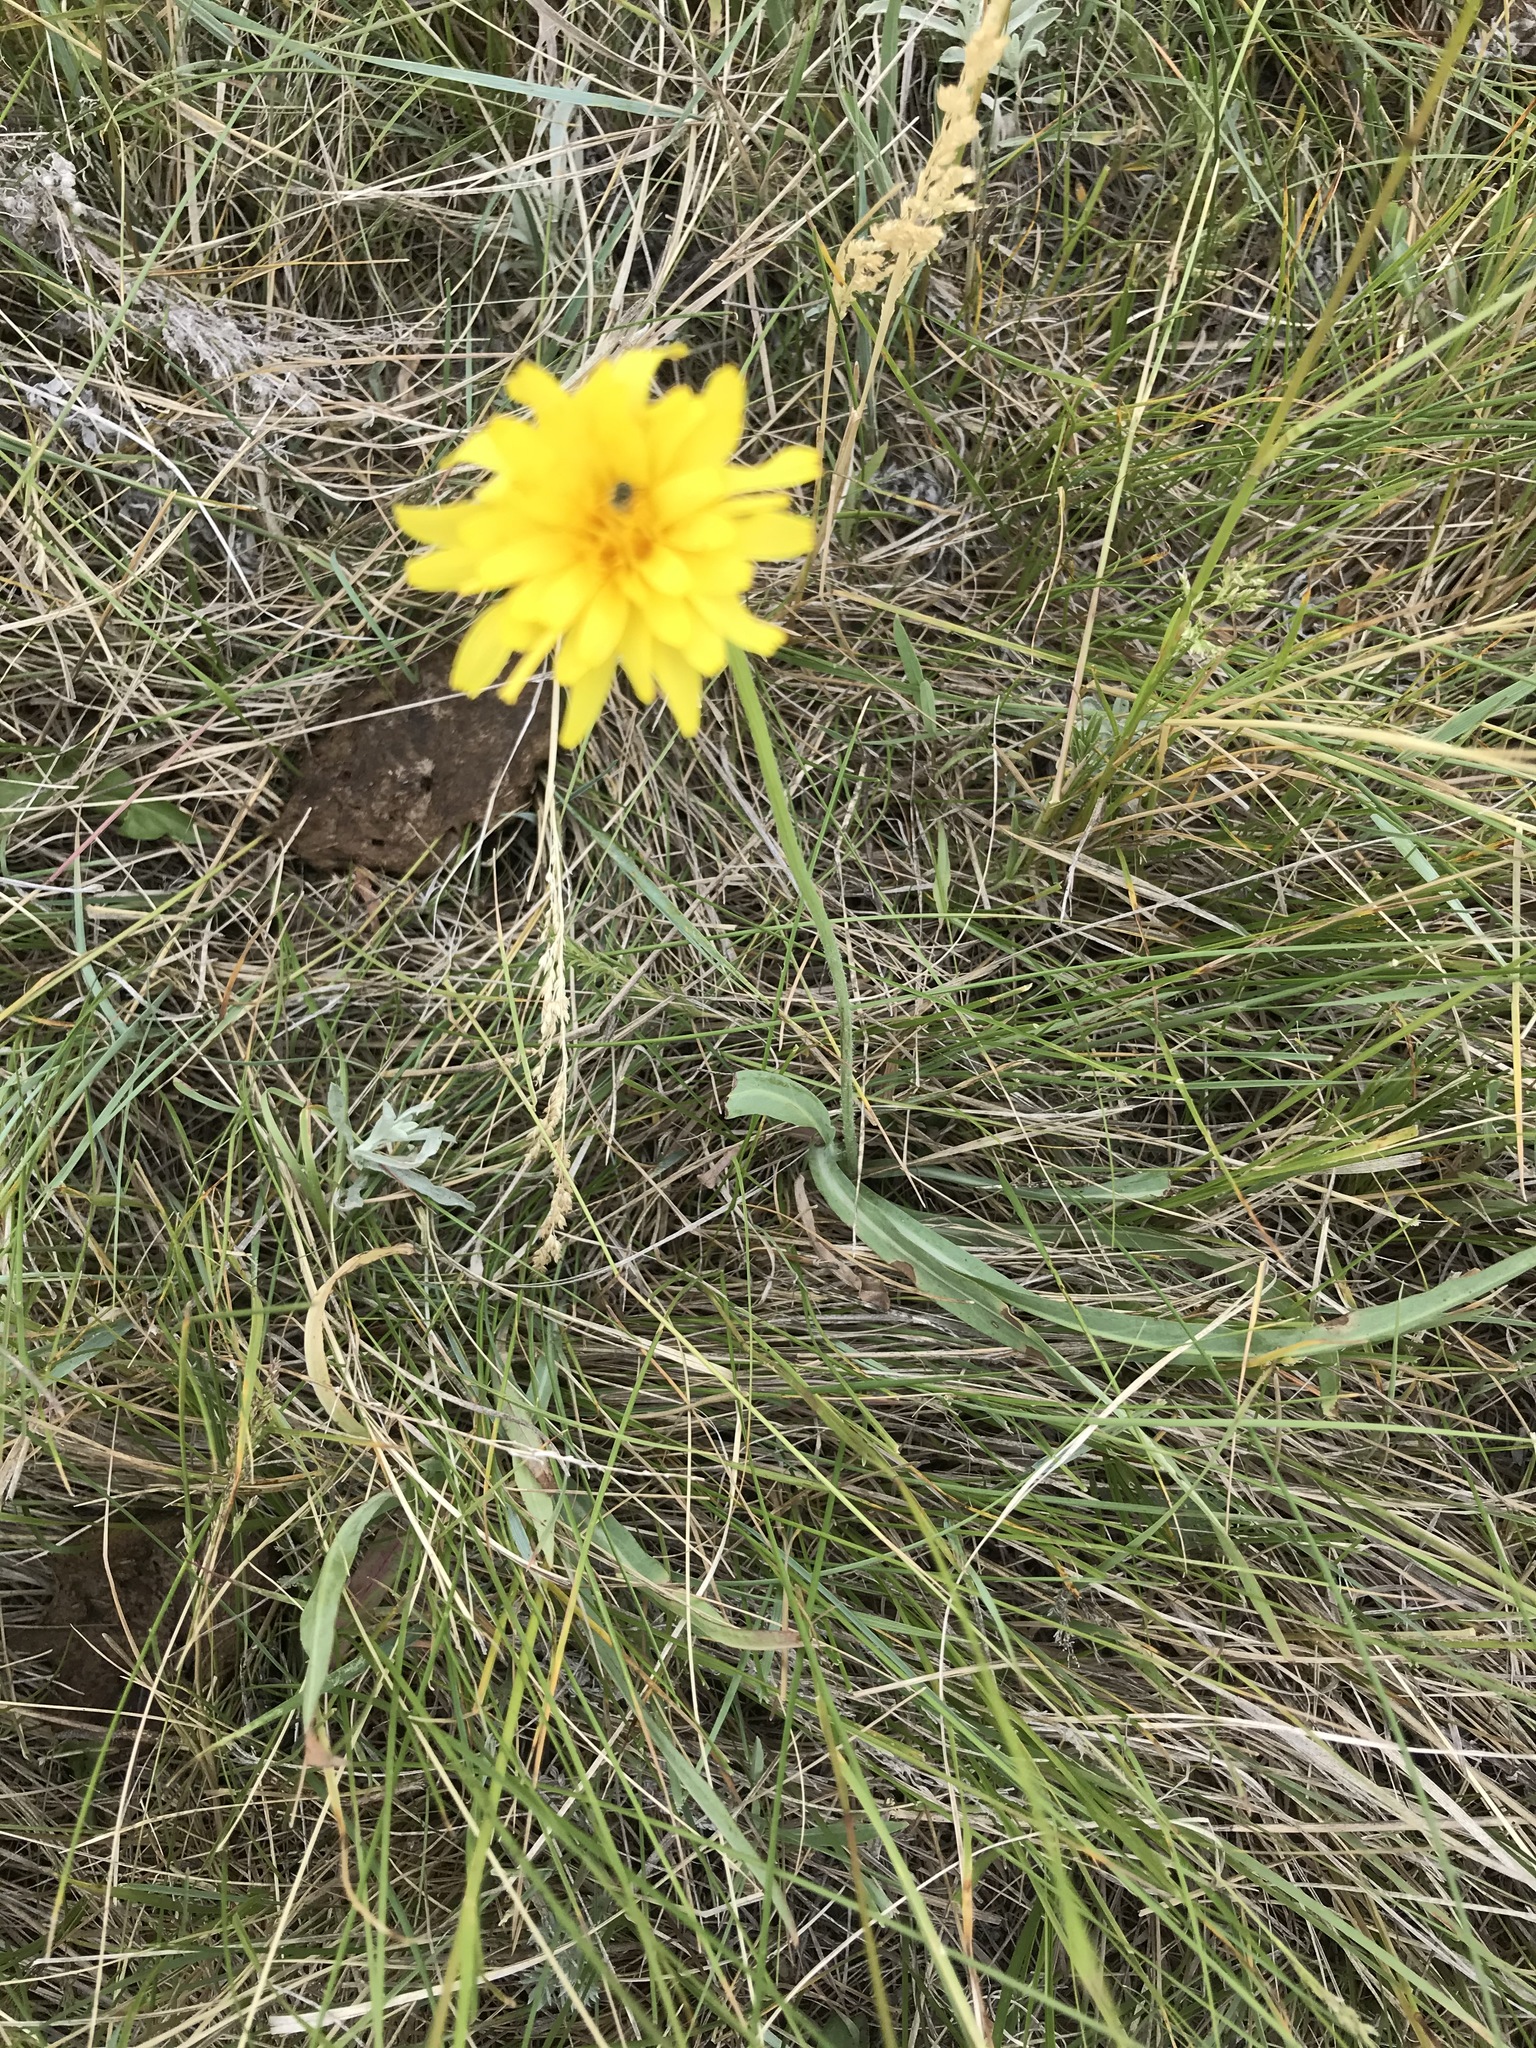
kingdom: Plantae
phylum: Tracheophyta
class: Magnoliopsida
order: Asterales
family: Asteraceae
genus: Agoseris
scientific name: Agoseris glauca
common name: Prairie agoseris
